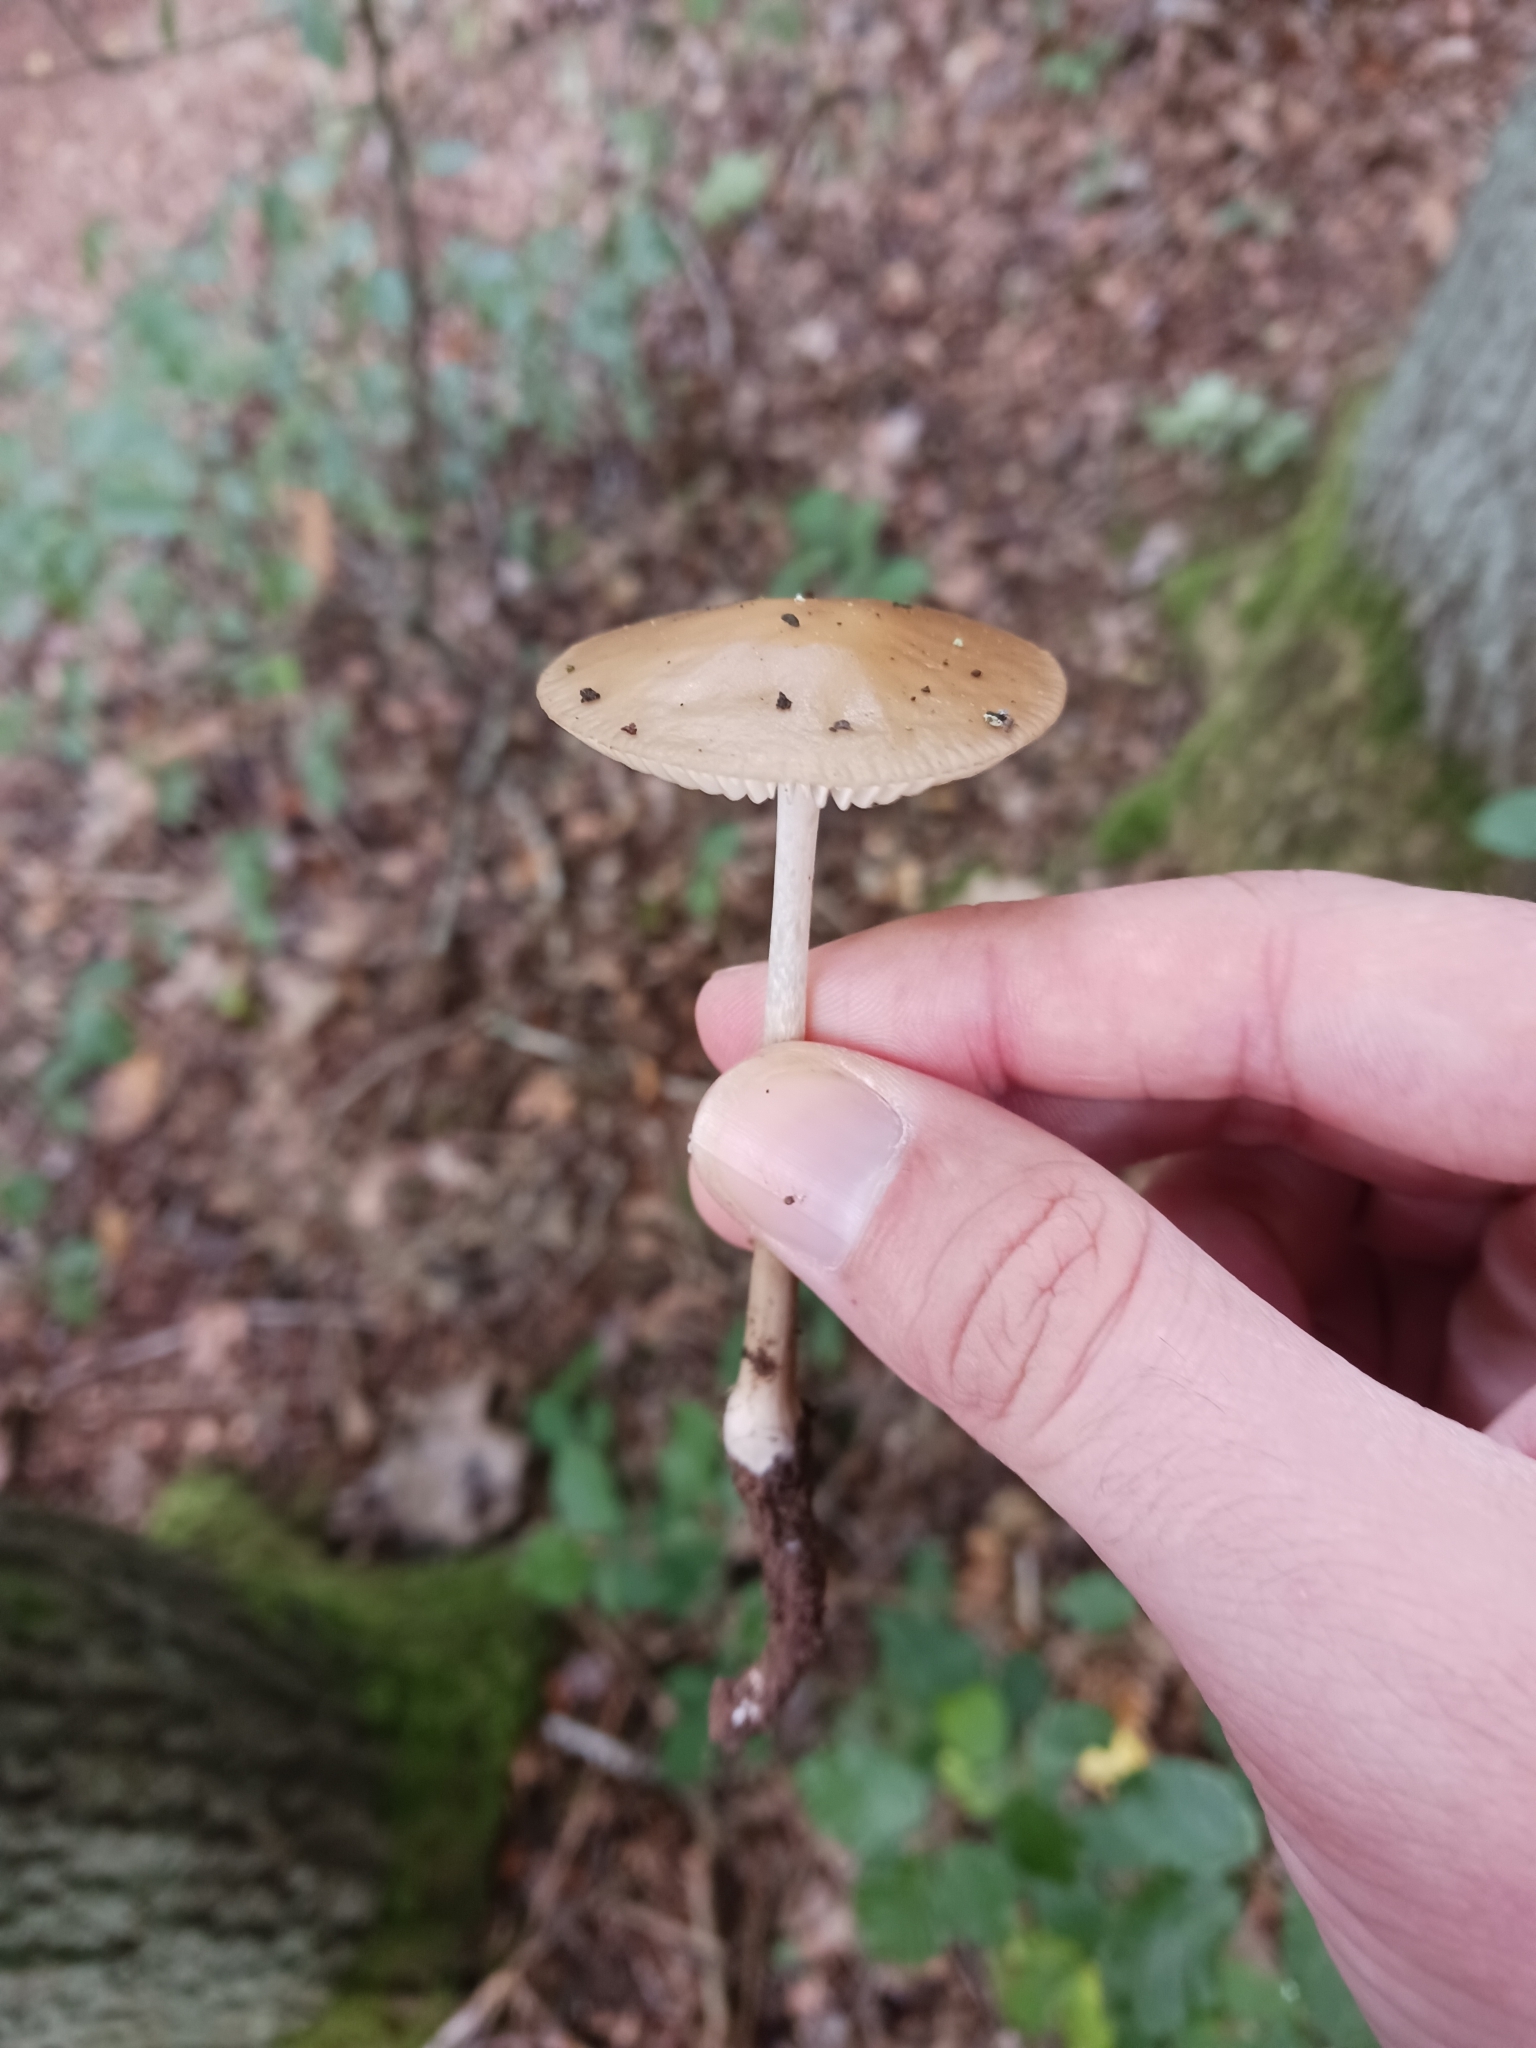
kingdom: Fungi
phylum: Basidiomycota
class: Agaricomycetes
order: Agaricales
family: Physalacriaceae
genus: Hymenopellis
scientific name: Hymenopellis radicata
